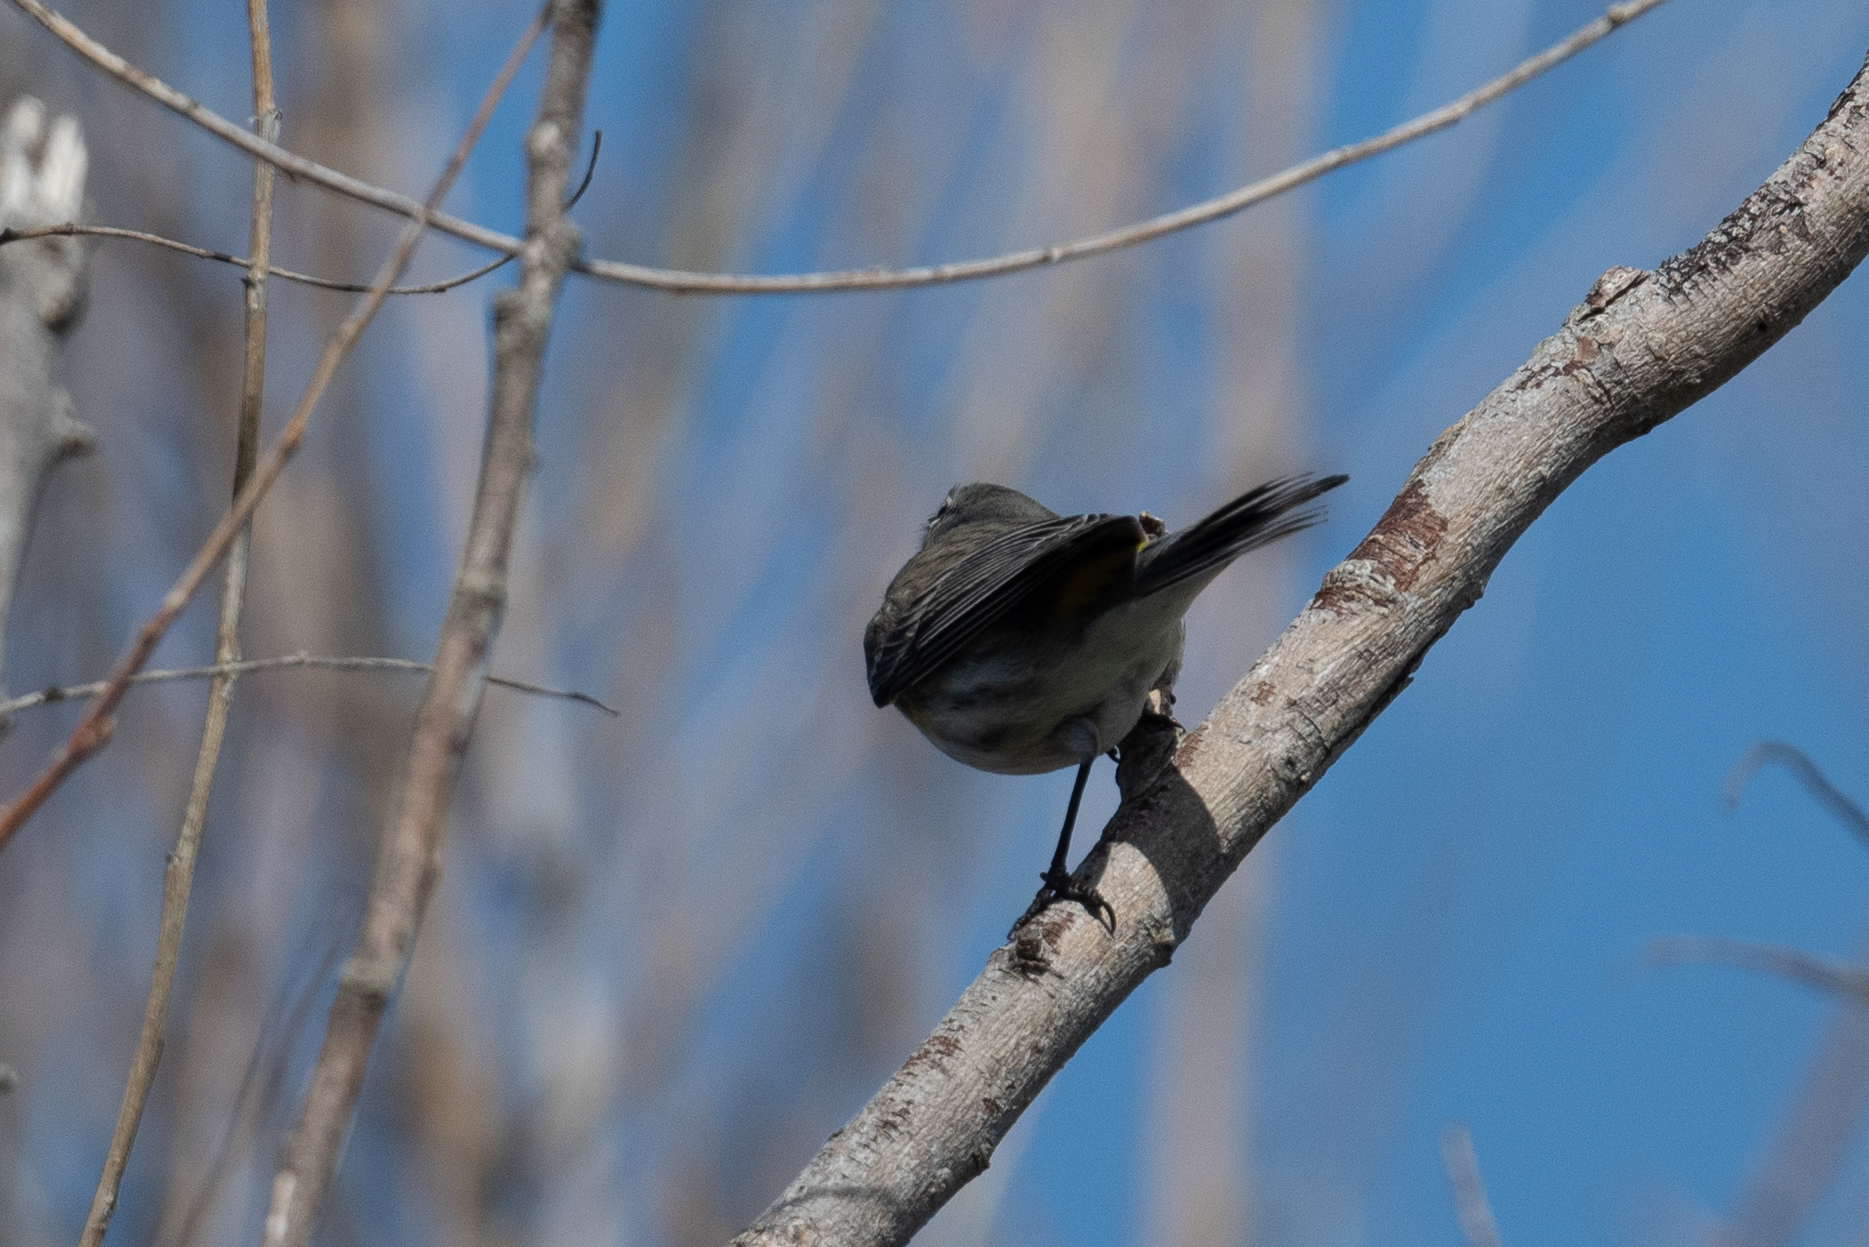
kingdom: Animalia
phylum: Chordata
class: Aves
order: Passeriformes
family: Parulidae
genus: Setophaga
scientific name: Setophaga coronata
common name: Myrtle warbler
